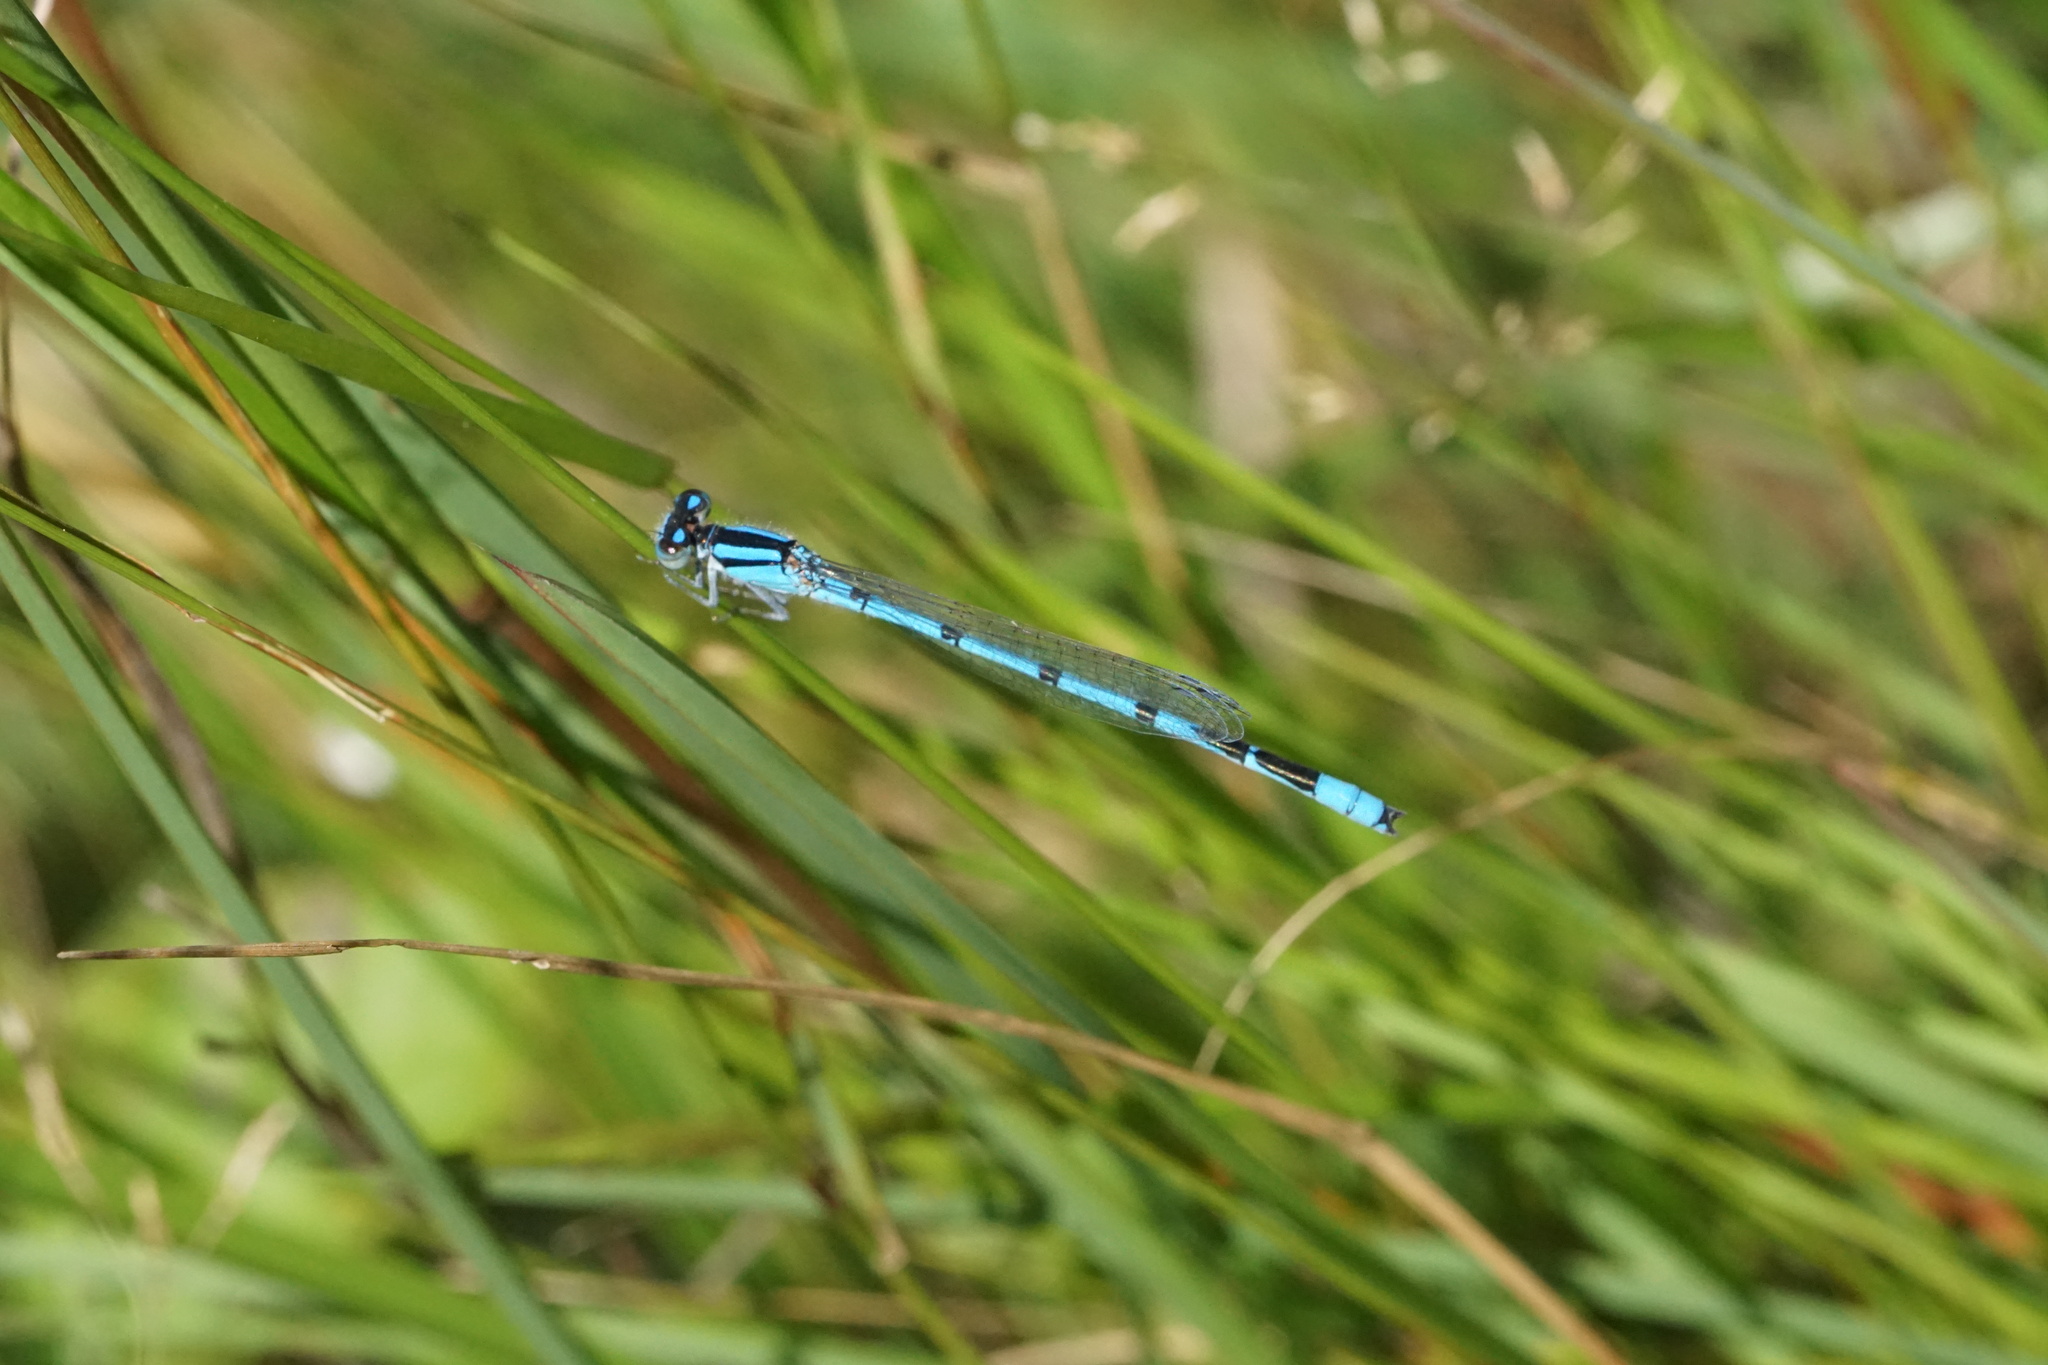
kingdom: Animalia
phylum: Arthropoda
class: Insecta
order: Odonata
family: Coenagrionidae
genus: Enallagma
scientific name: Enallagma civile
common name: Damselfly
